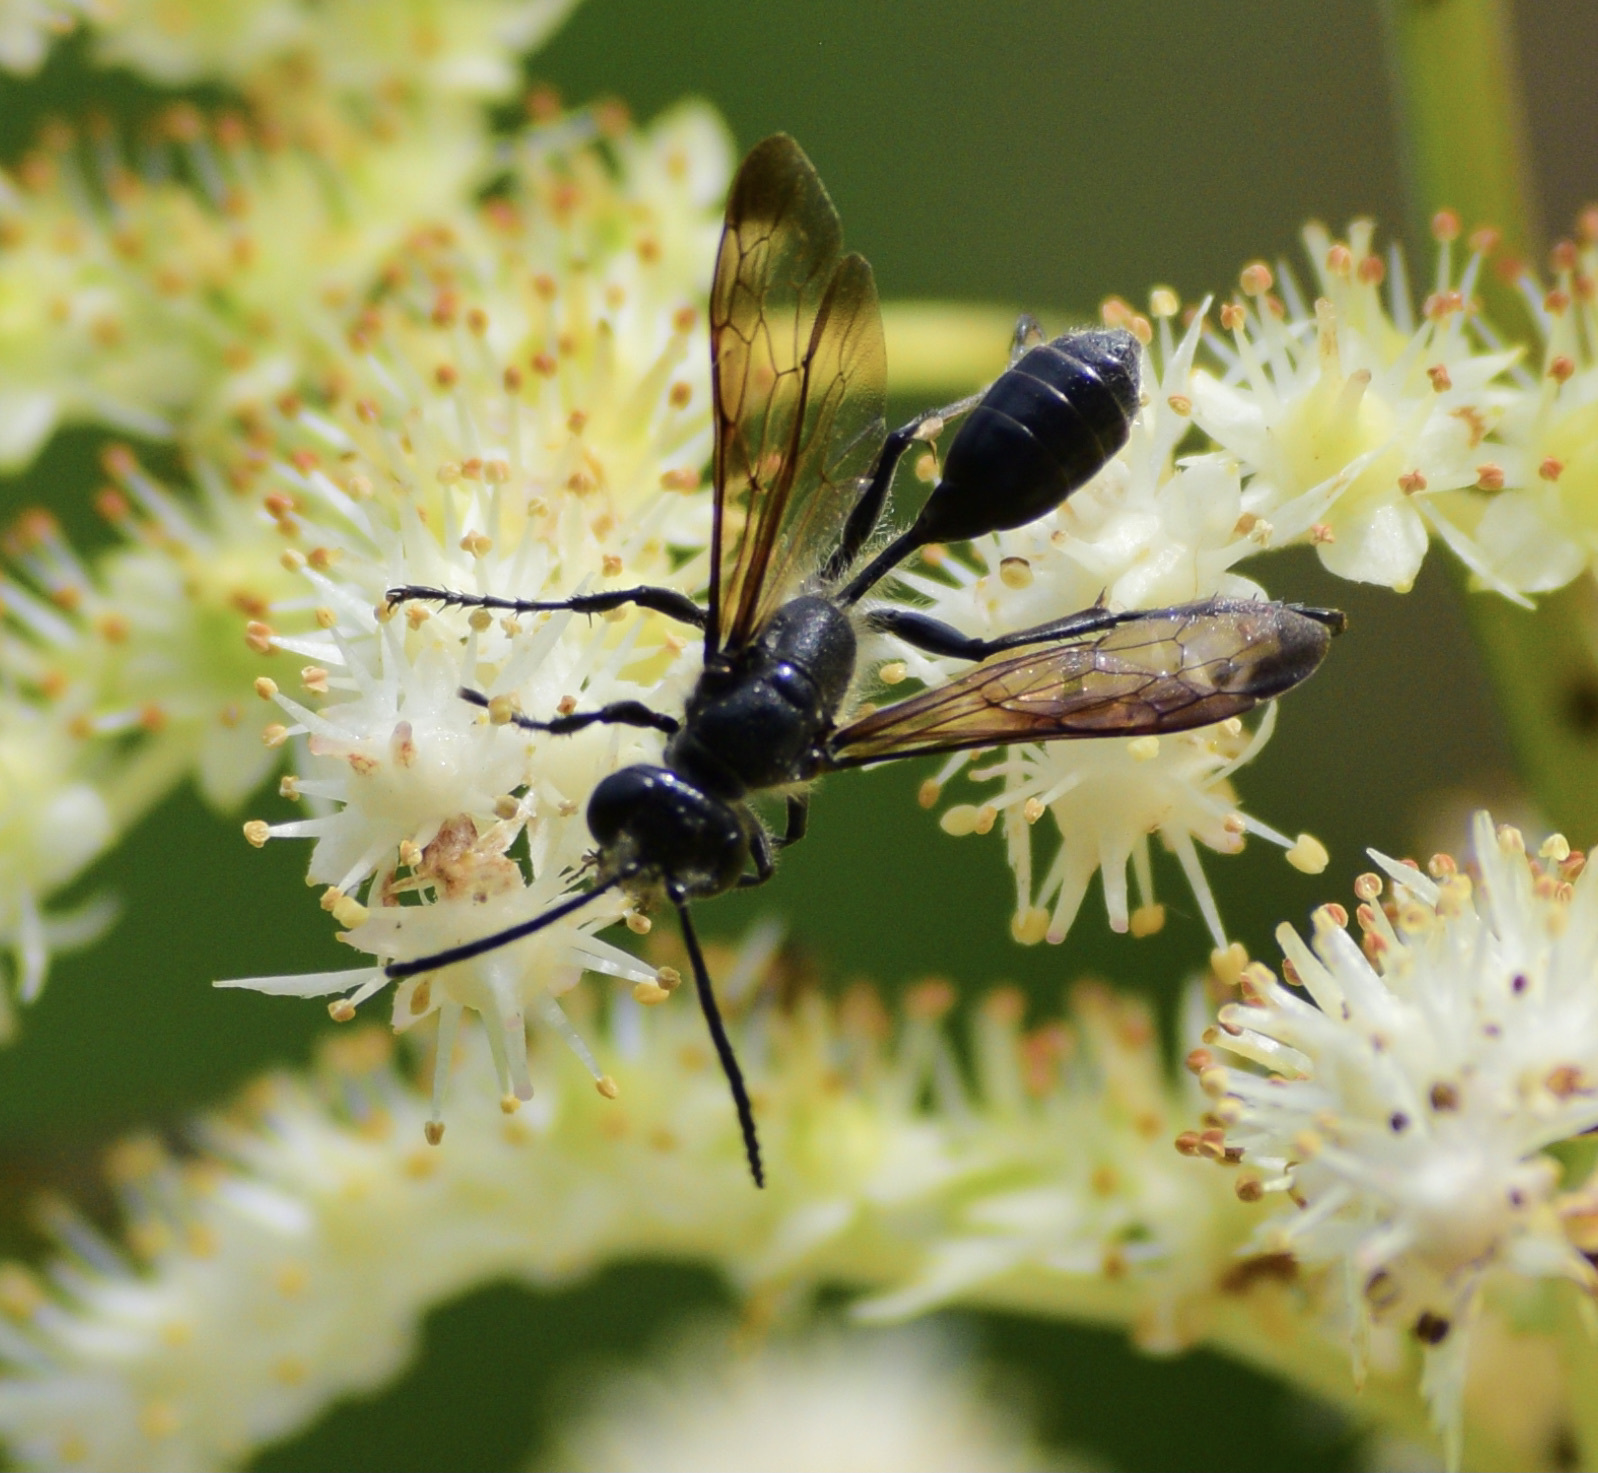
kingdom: Animalia
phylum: Arthropoda
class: Insecta
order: Hymenoptera
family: Sphecidae
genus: Isodontia
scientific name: Isodontia mexicana
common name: Mud dauber
